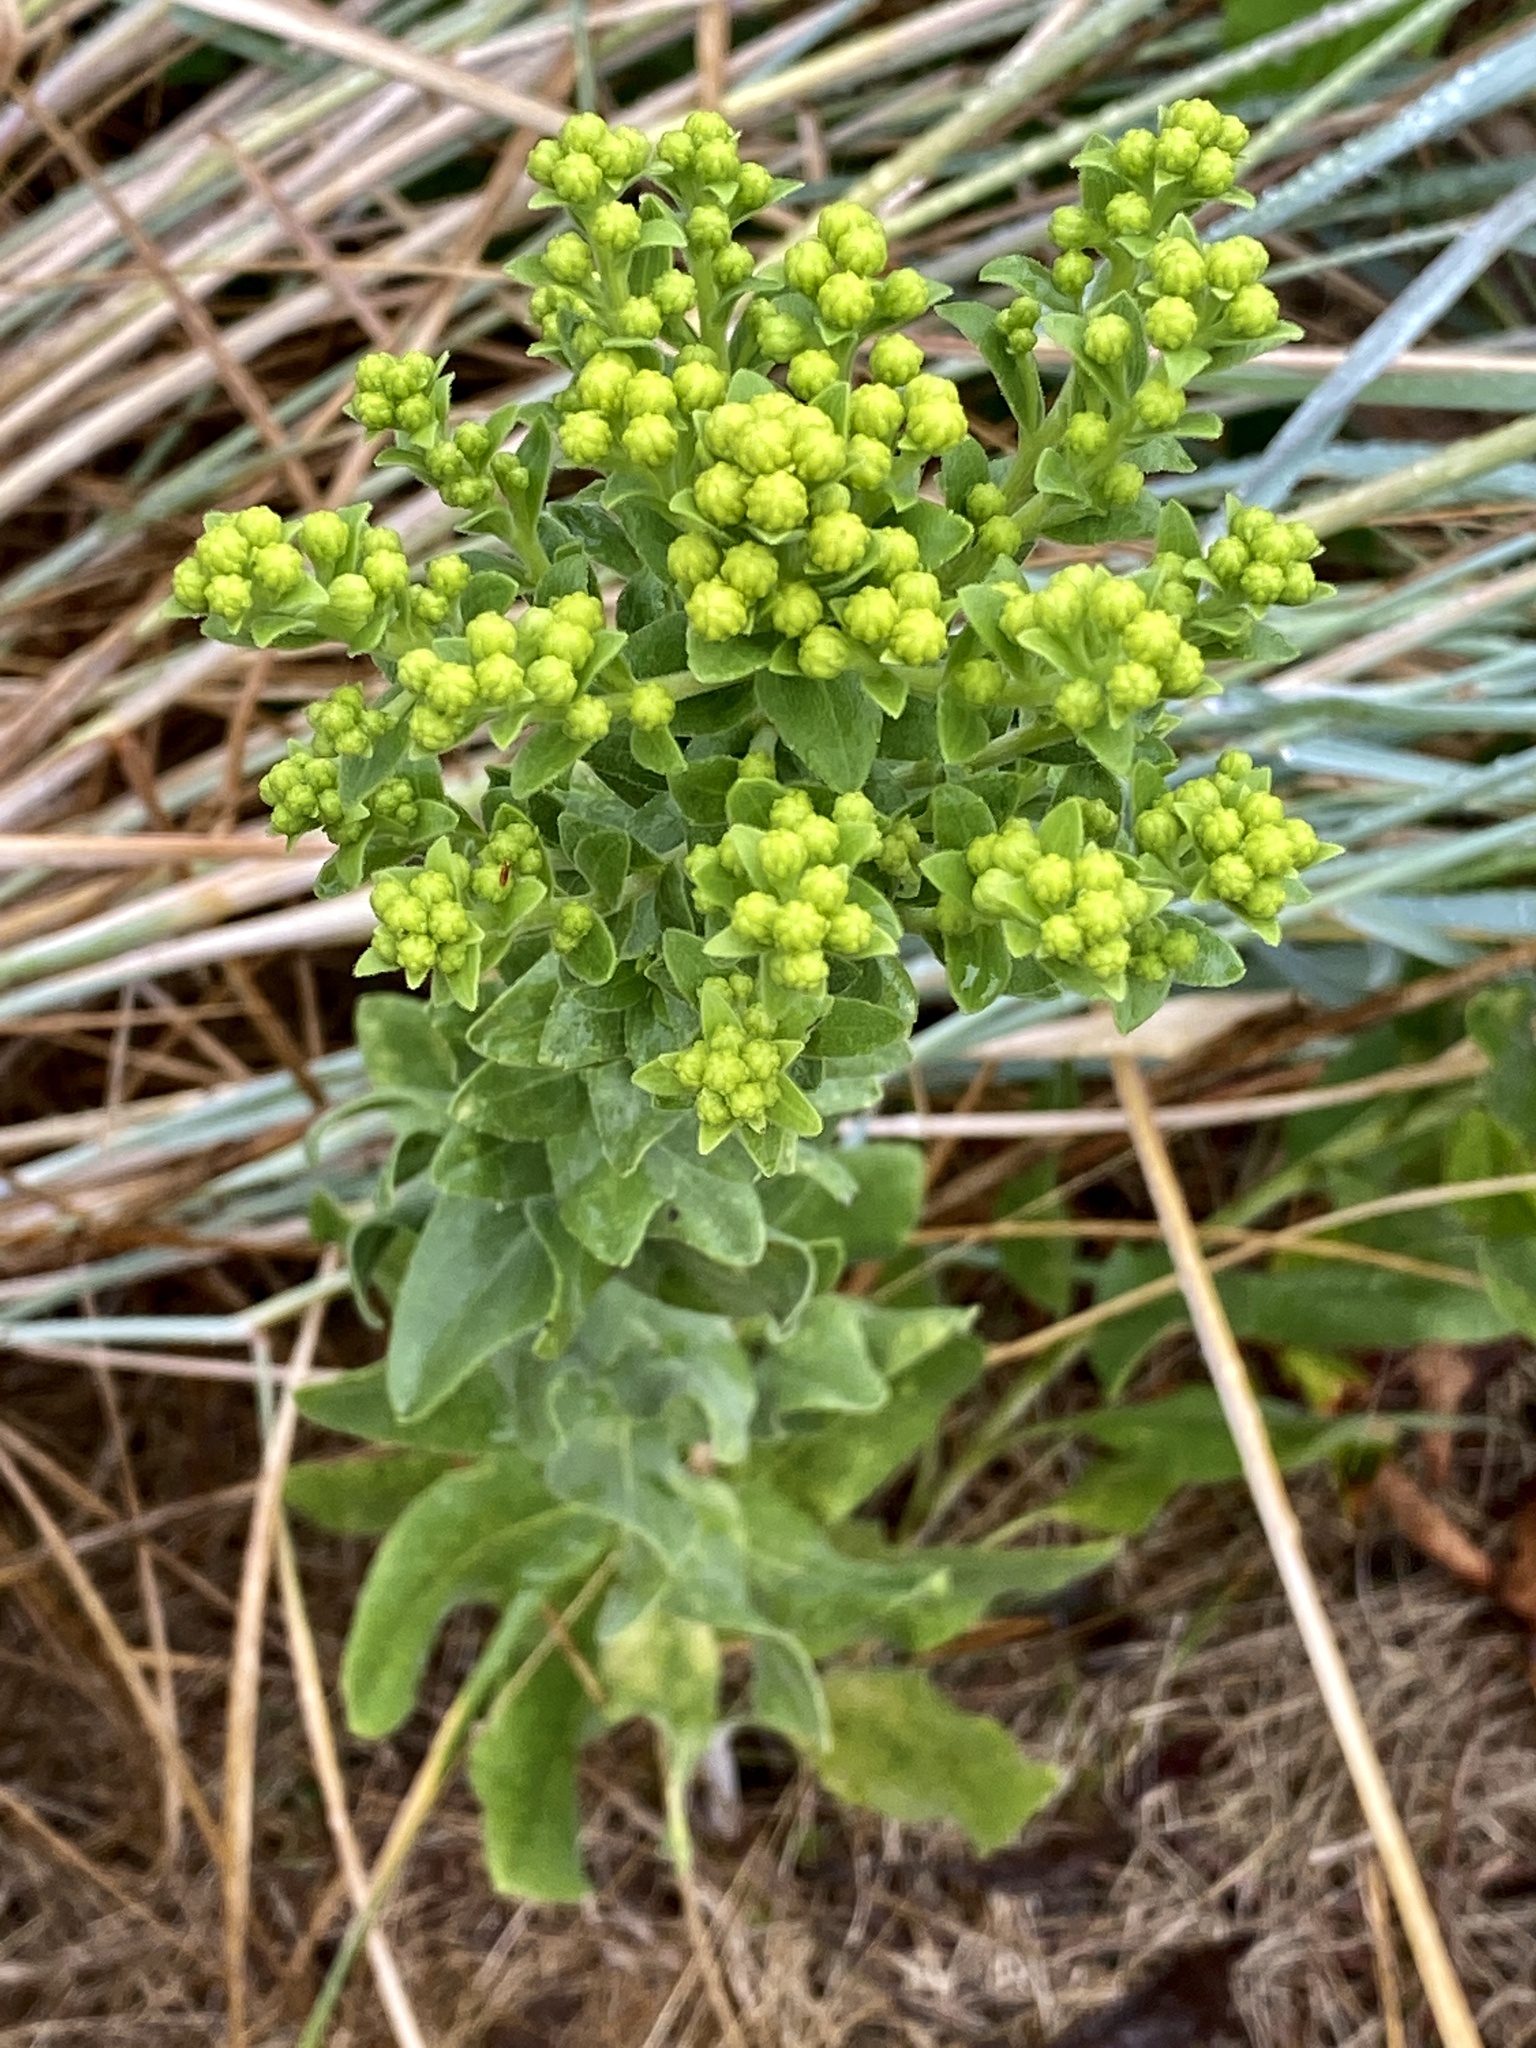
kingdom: Plantae
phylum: Tracheophyta
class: Magnoliopsida
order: Asterales
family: Asteraceae
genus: Solidago
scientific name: Solidago rigida
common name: Rigid goldenrod
